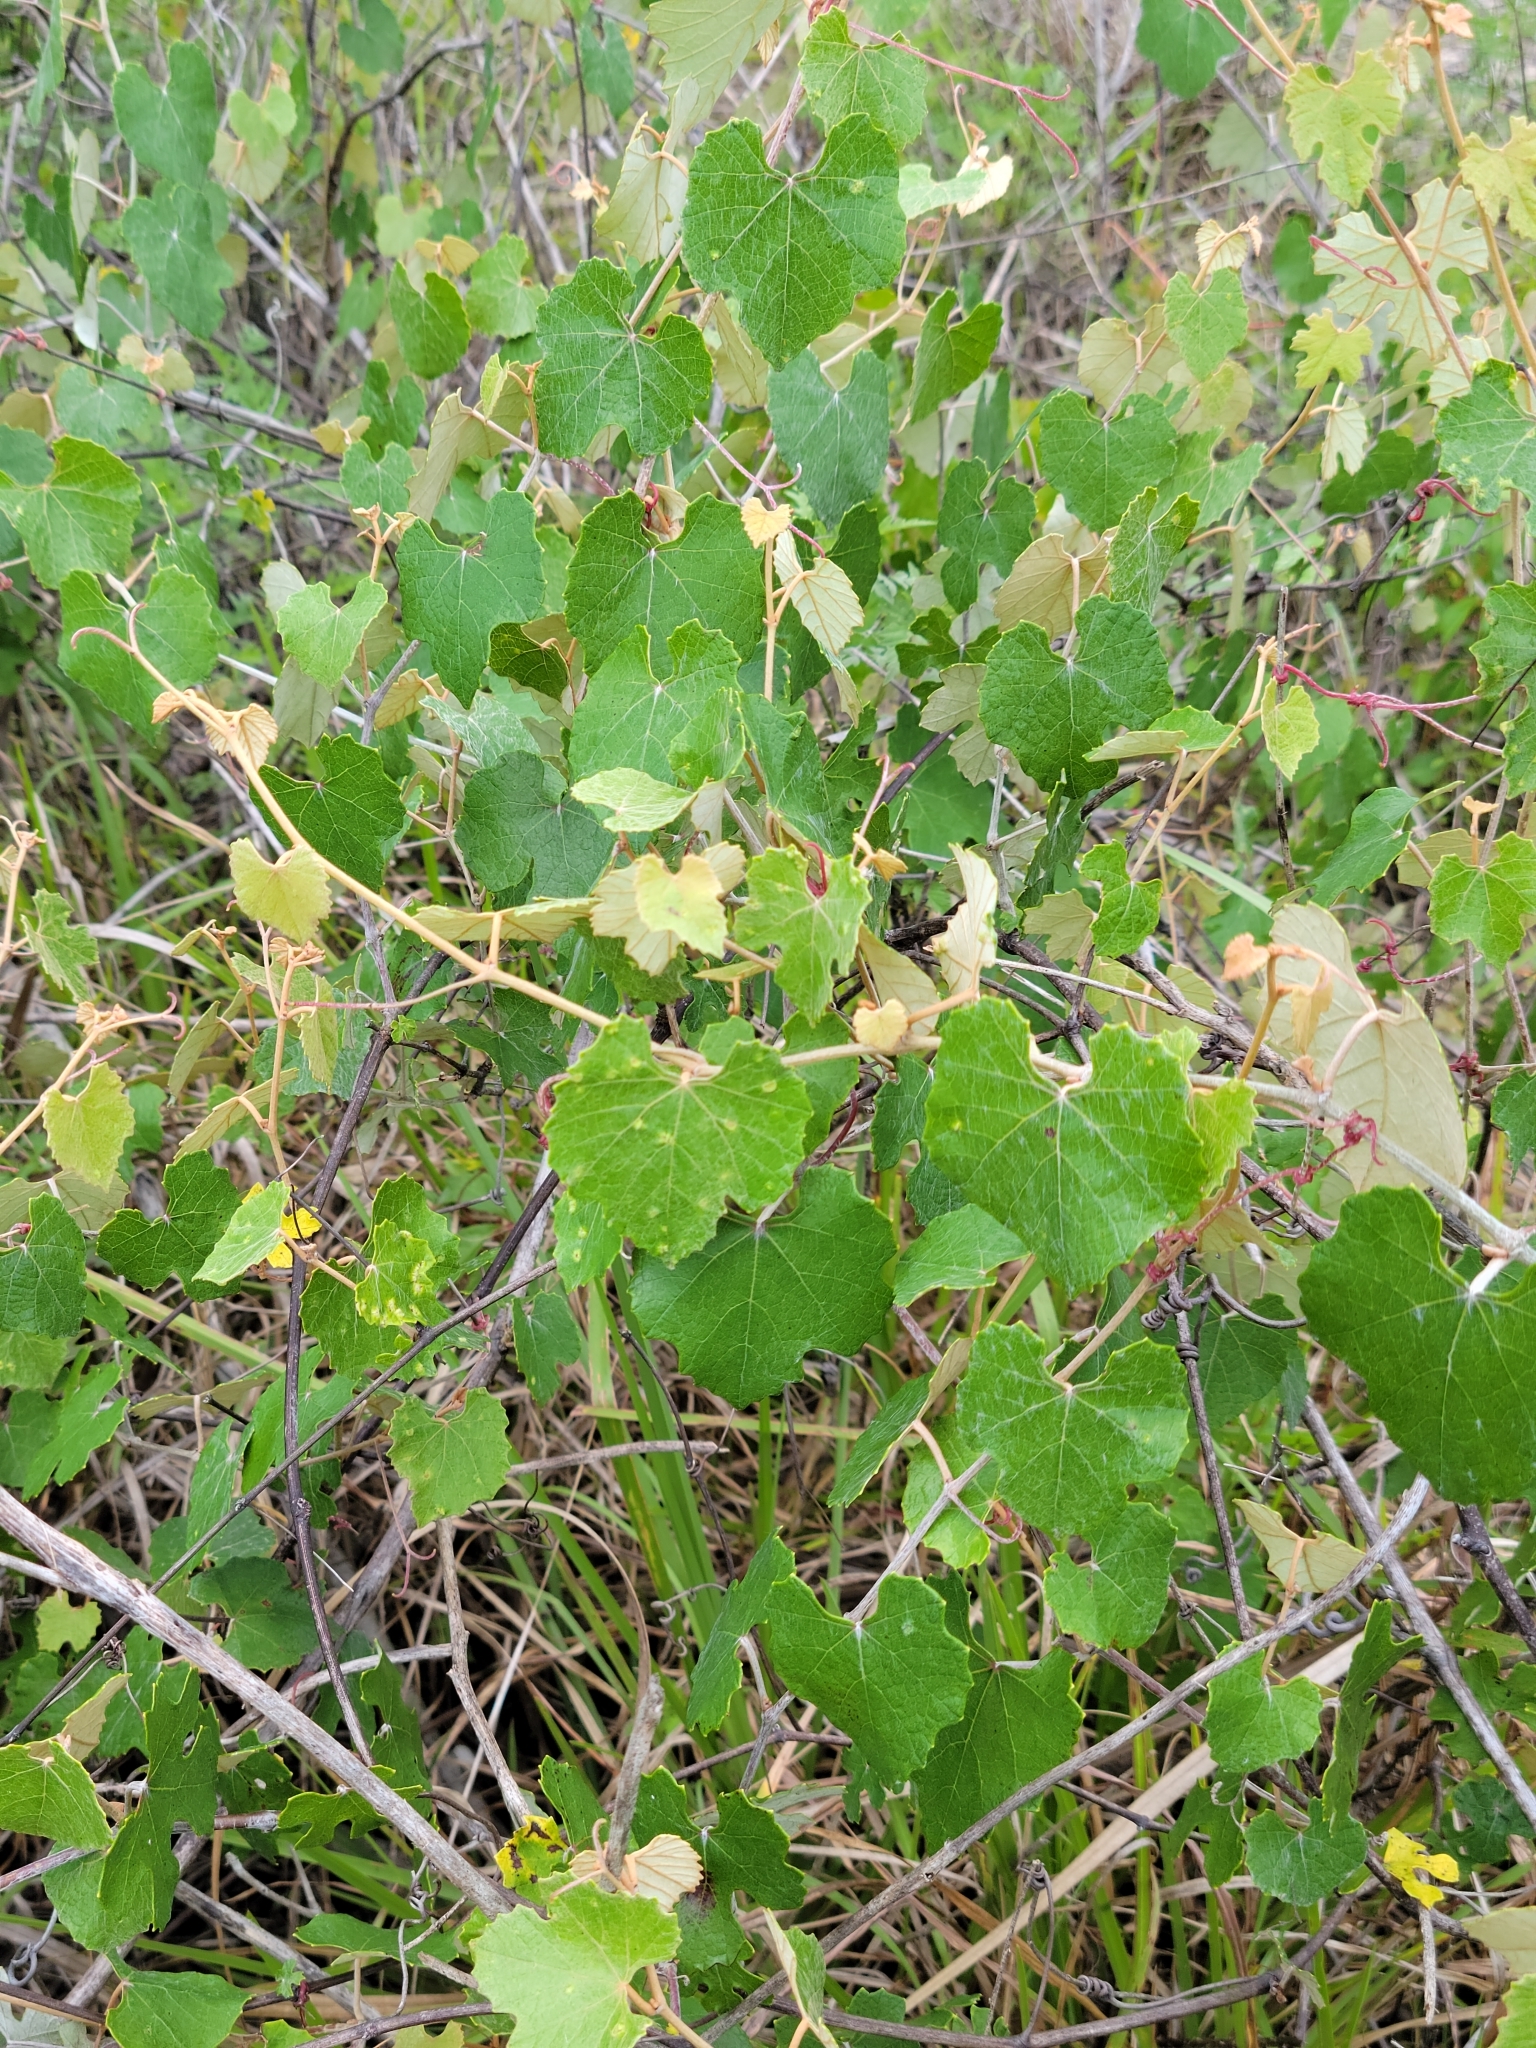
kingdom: Plantae
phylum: Tracheophyta
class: Magnoliopsida
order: Vitales
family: Vitaceae
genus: Vitis
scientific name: Vitis shuttleworthii
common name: Caloosa grape
